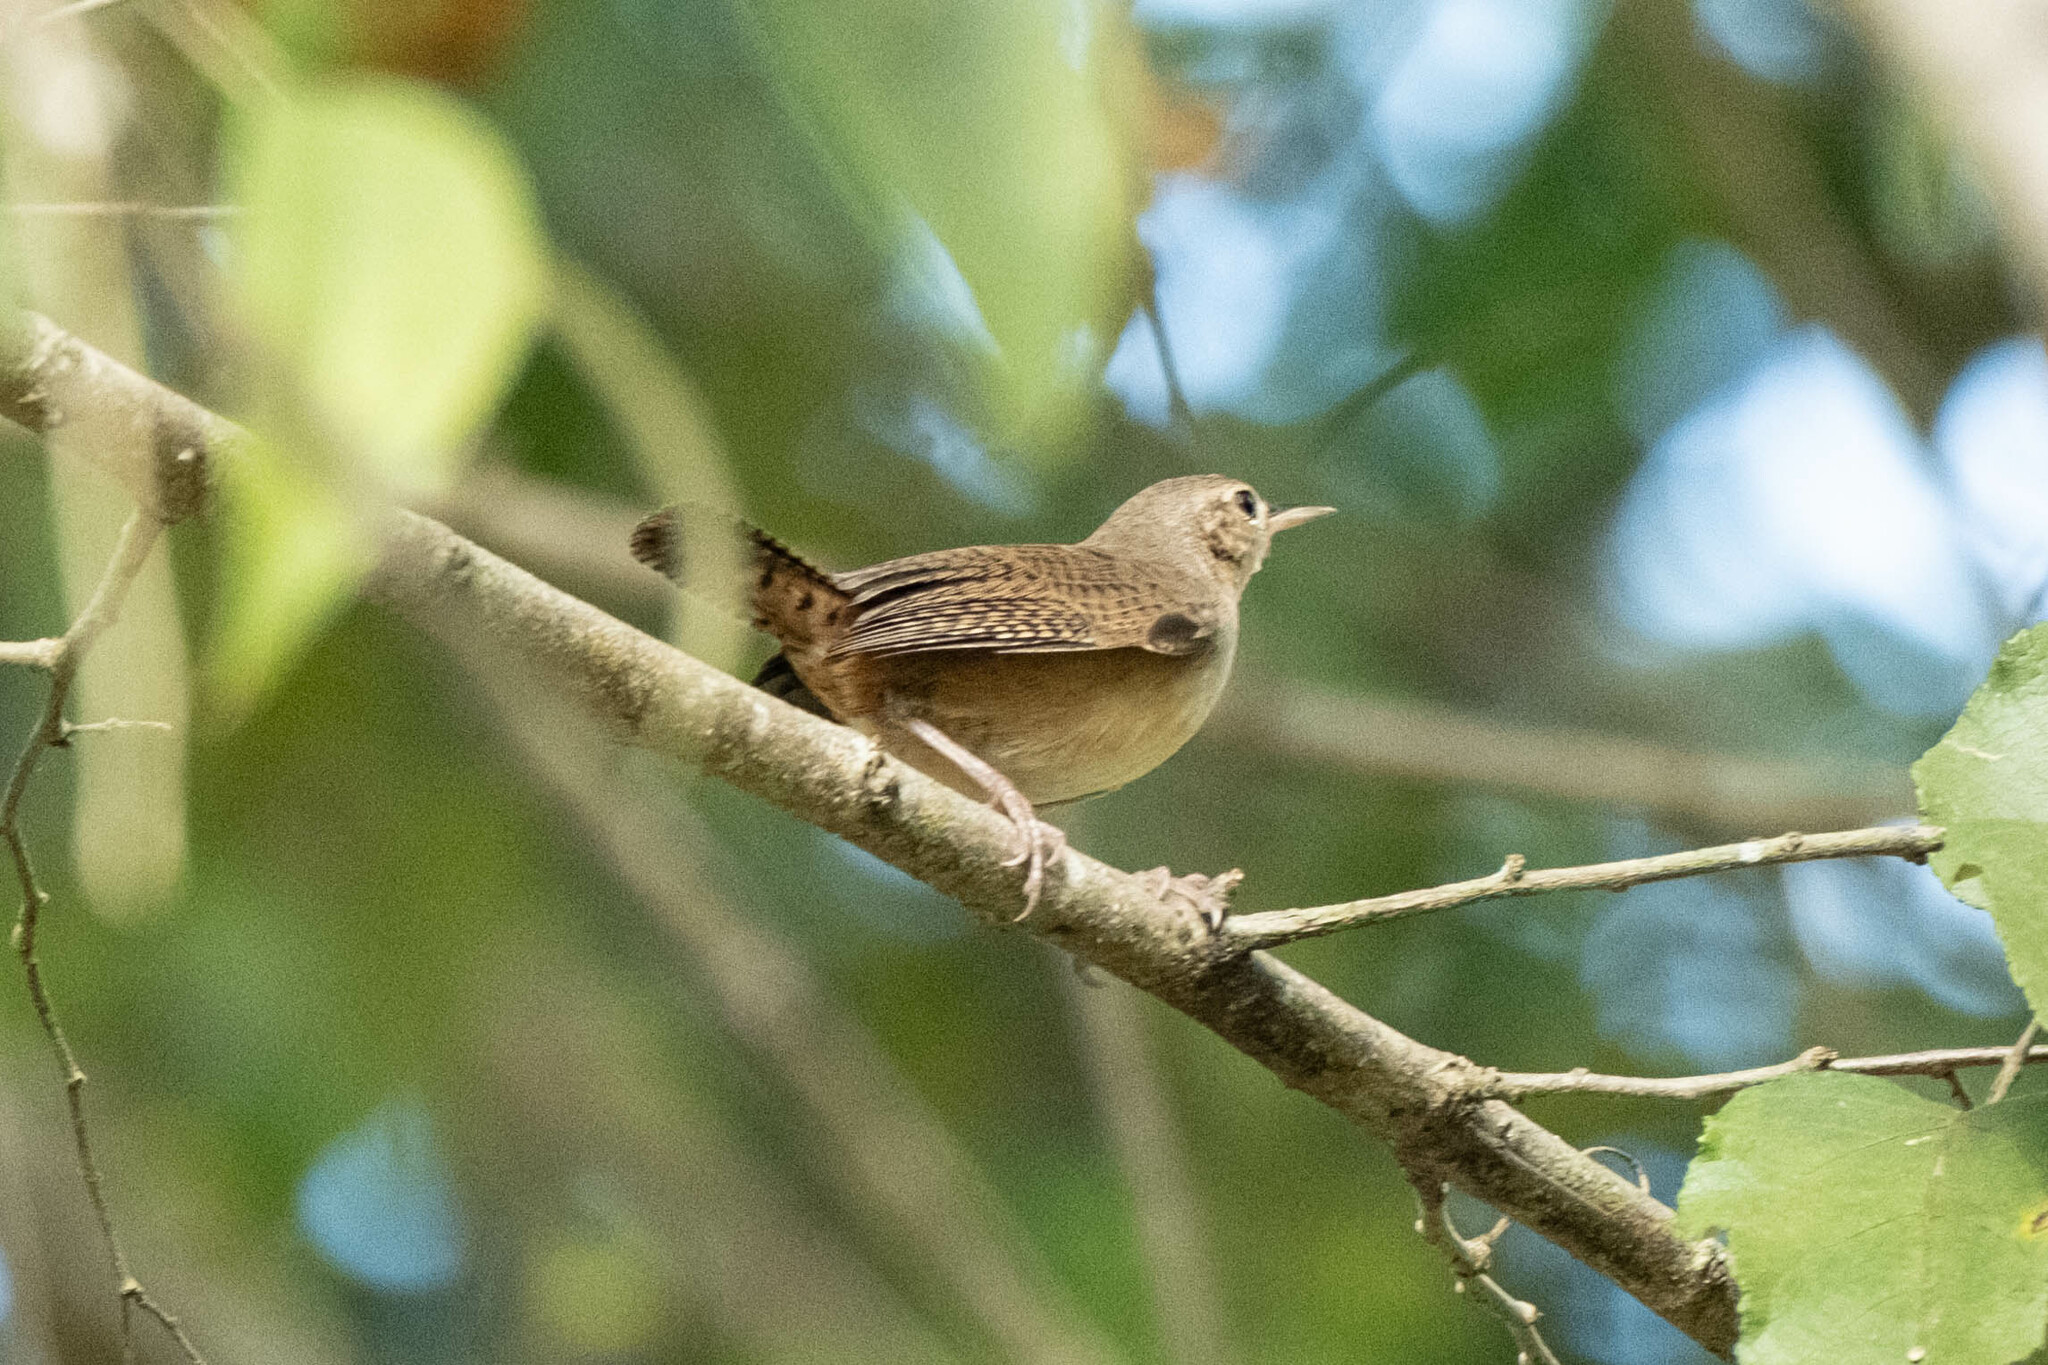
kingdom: Animalia
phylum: Chordata
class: Aves
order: Passeriformes
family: Troglodytidae
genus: Troglodytes
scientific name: Troglodytes aedon
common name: House wren
